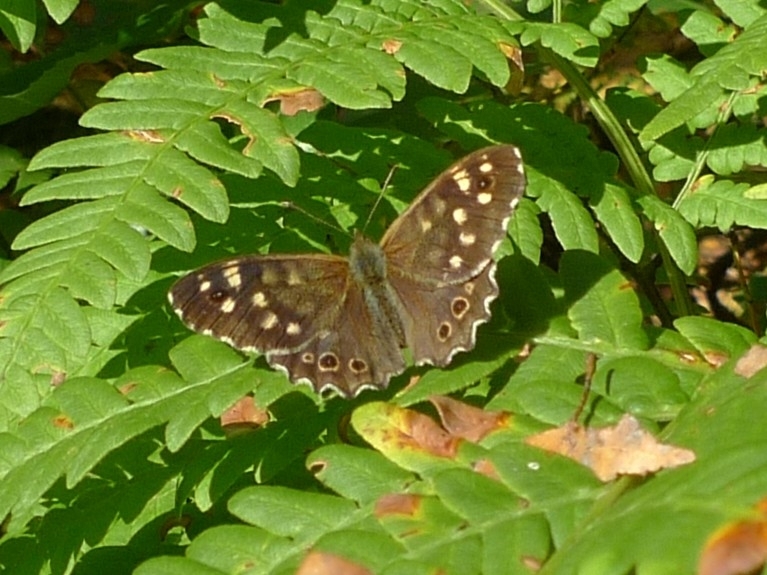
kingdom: Animalia
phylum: Arthropoda
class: Insecta
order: Lepidoptera
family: Nymphalidae
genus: Pararge
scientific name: Pararge aegeria
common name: Speckled wood
